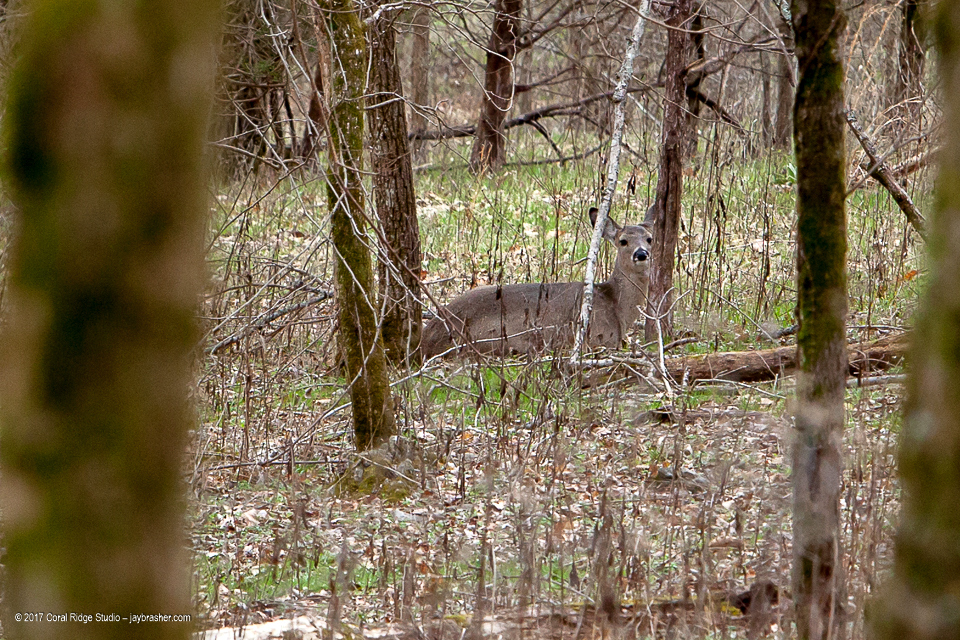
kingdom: Animalia
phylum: Chordata
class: Mammalia
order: Artiodactyla
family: Cervidae
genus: Odocoileus
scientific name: Odocoileus virginianus
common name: White-tailed deer
